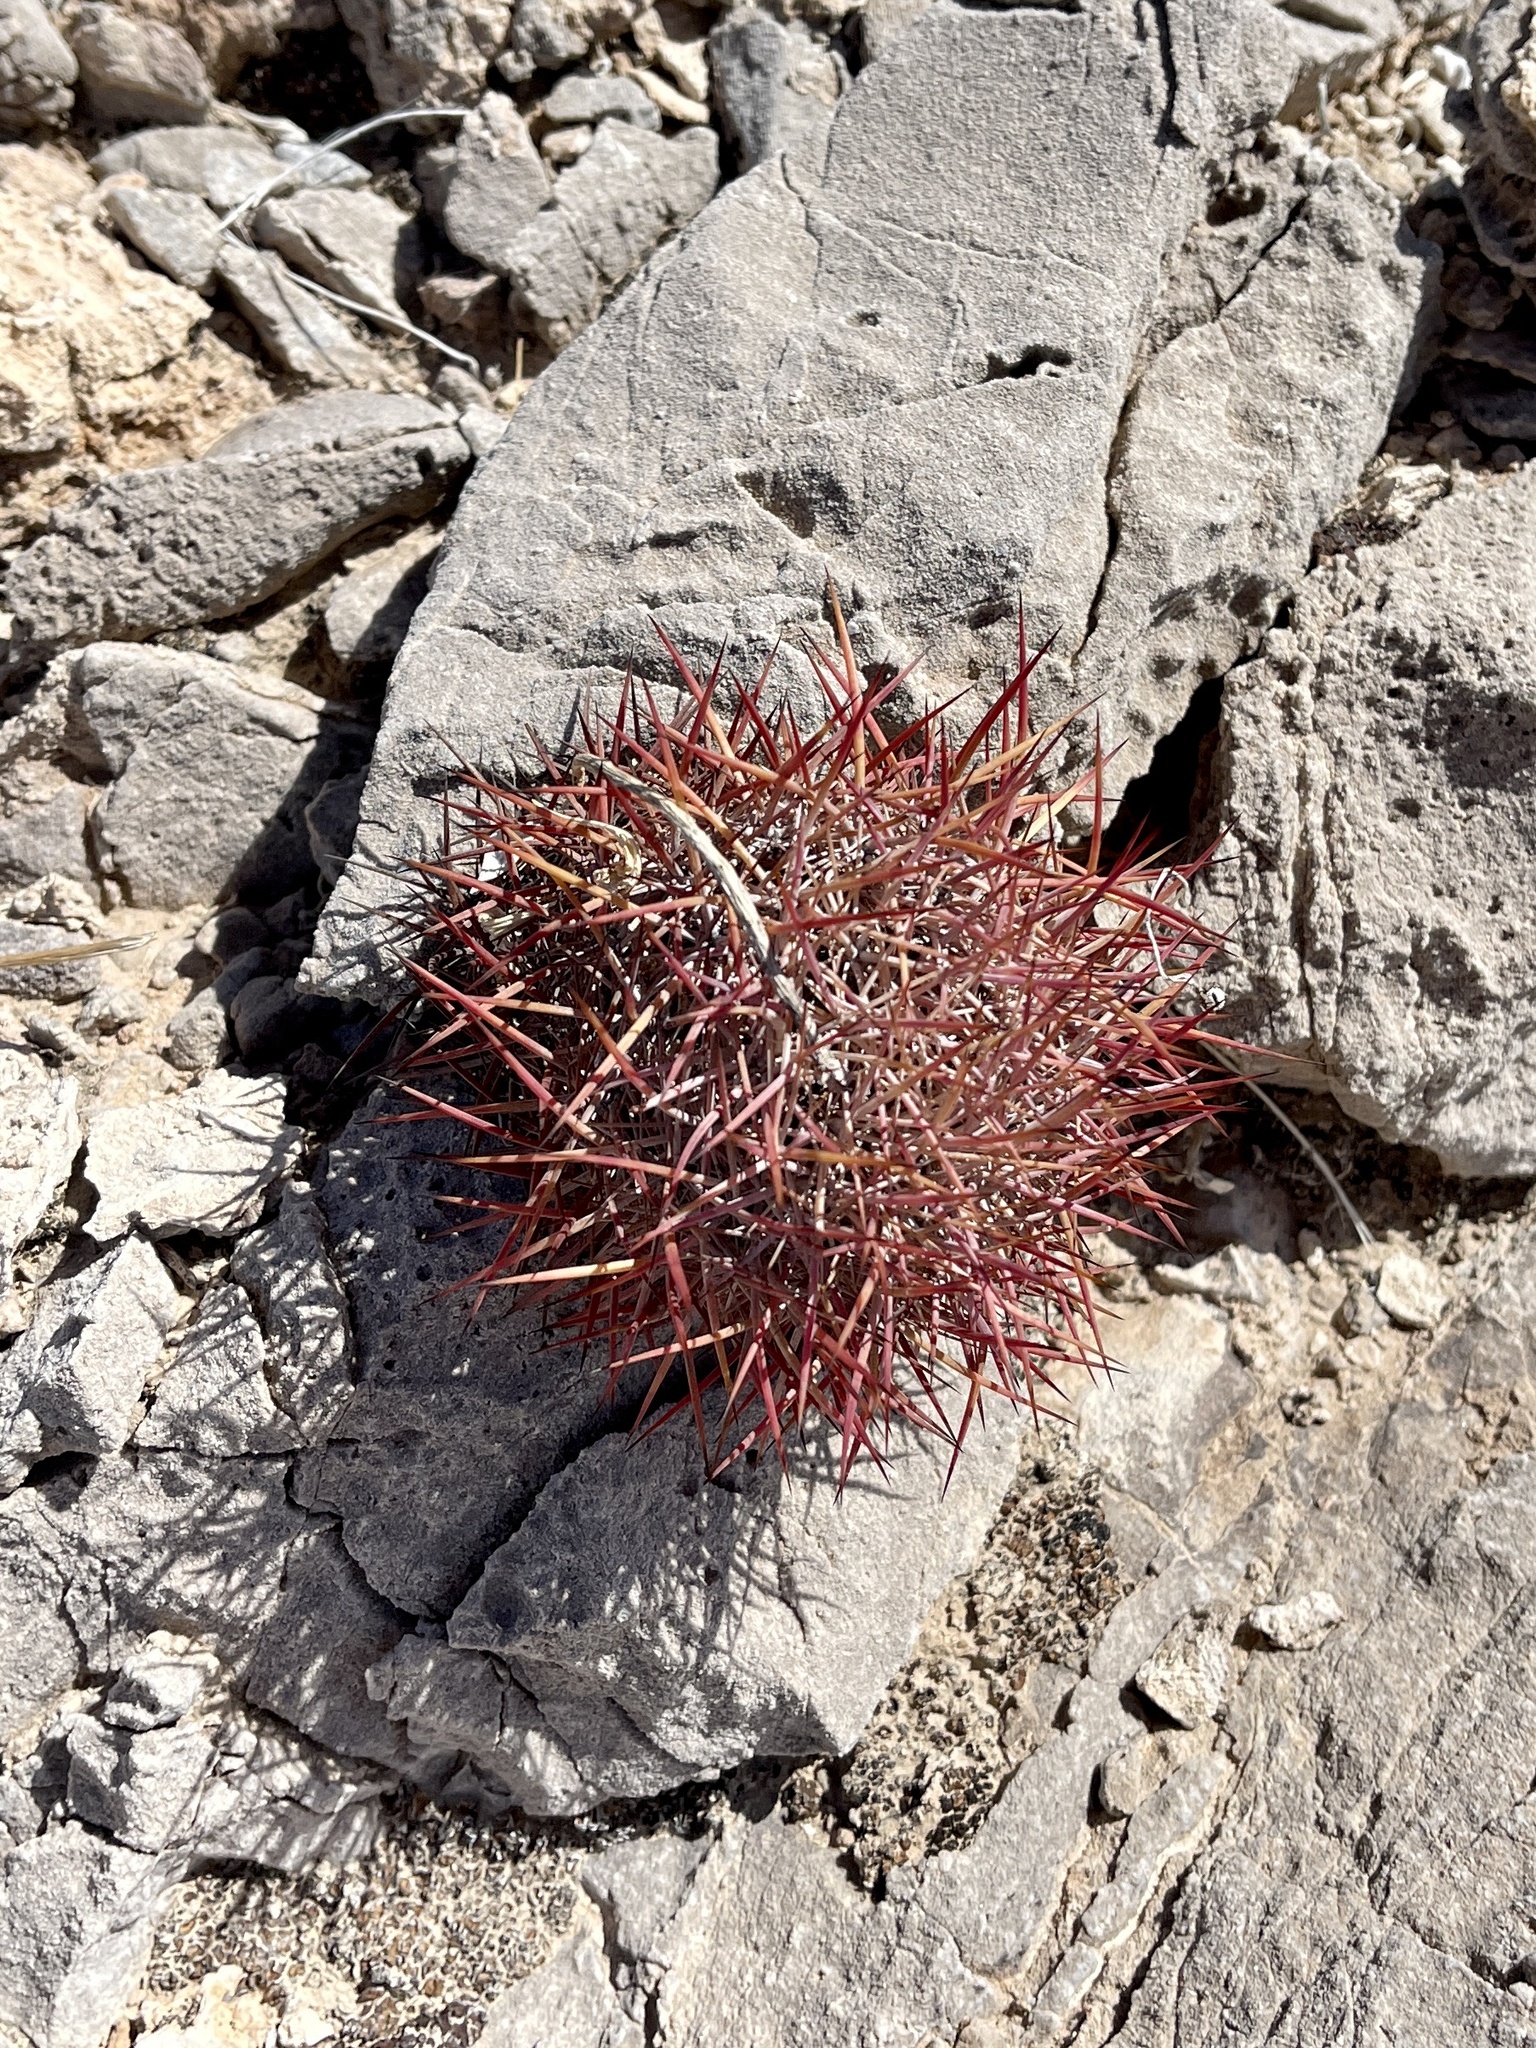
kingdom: Plantae
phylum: Tracheophyta
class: Magnoliopsida
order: Caryophyllales
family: Cactaceae
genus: Ferocactus
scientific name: Ferocactus cylindraceus
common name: California barrel cactus
